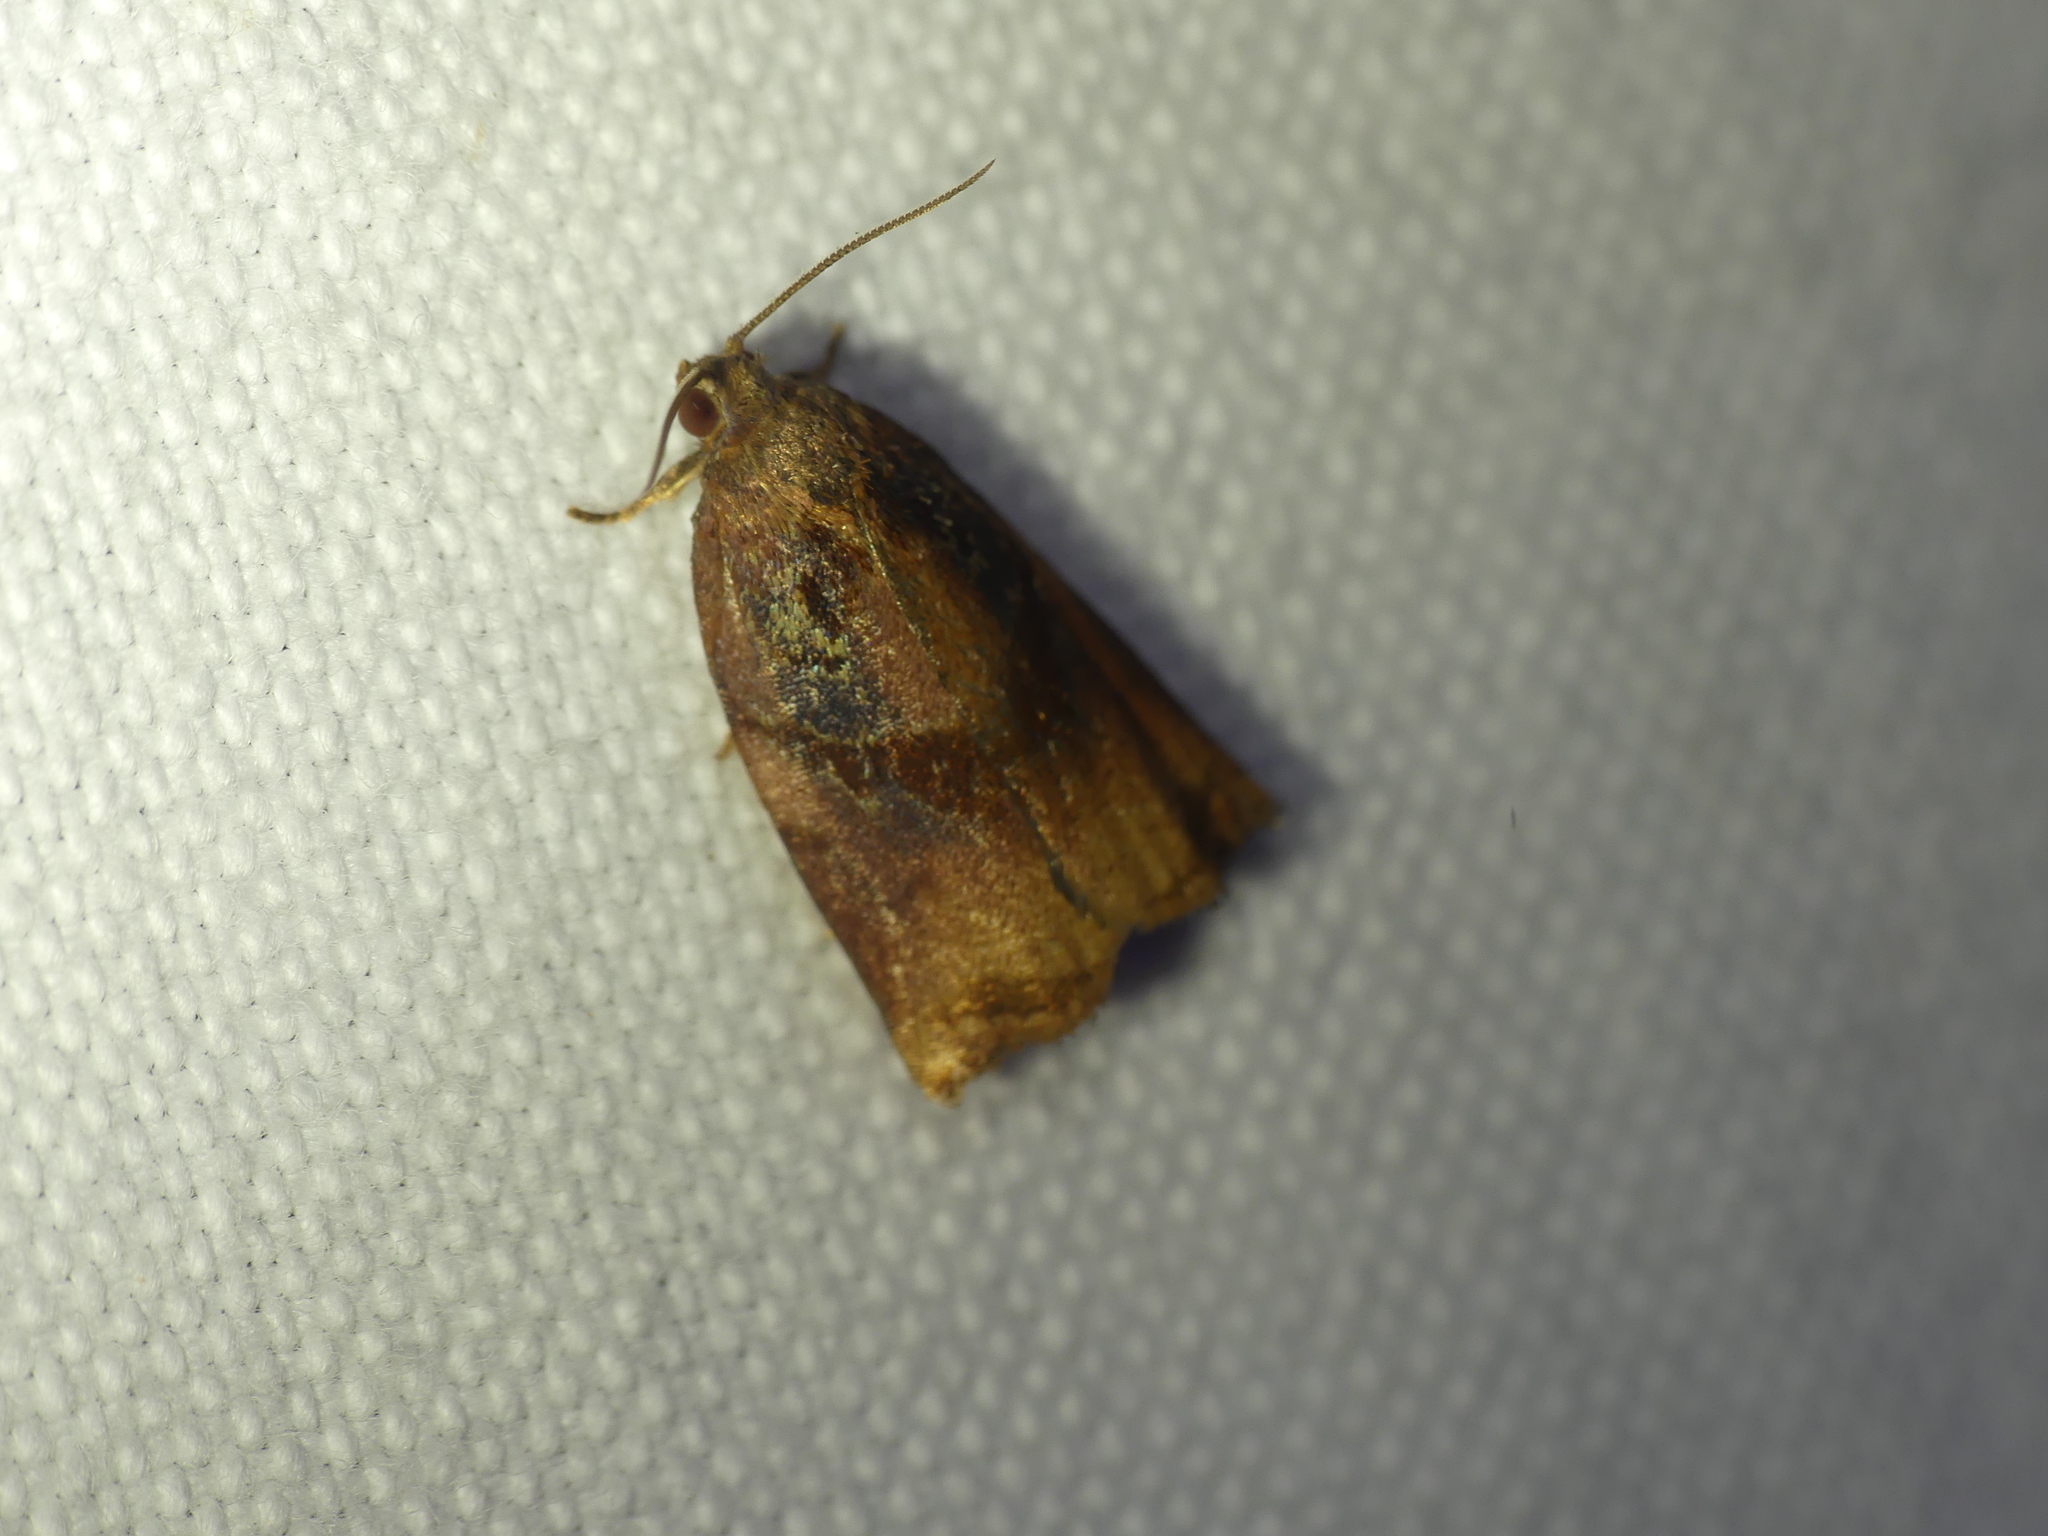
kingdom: Animalia
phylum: Arthropoda
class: Insecta
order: Lepidoptera
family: Tortricidae
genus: Archips
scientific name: Archips podana
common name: Large fruit-tree tortrix
